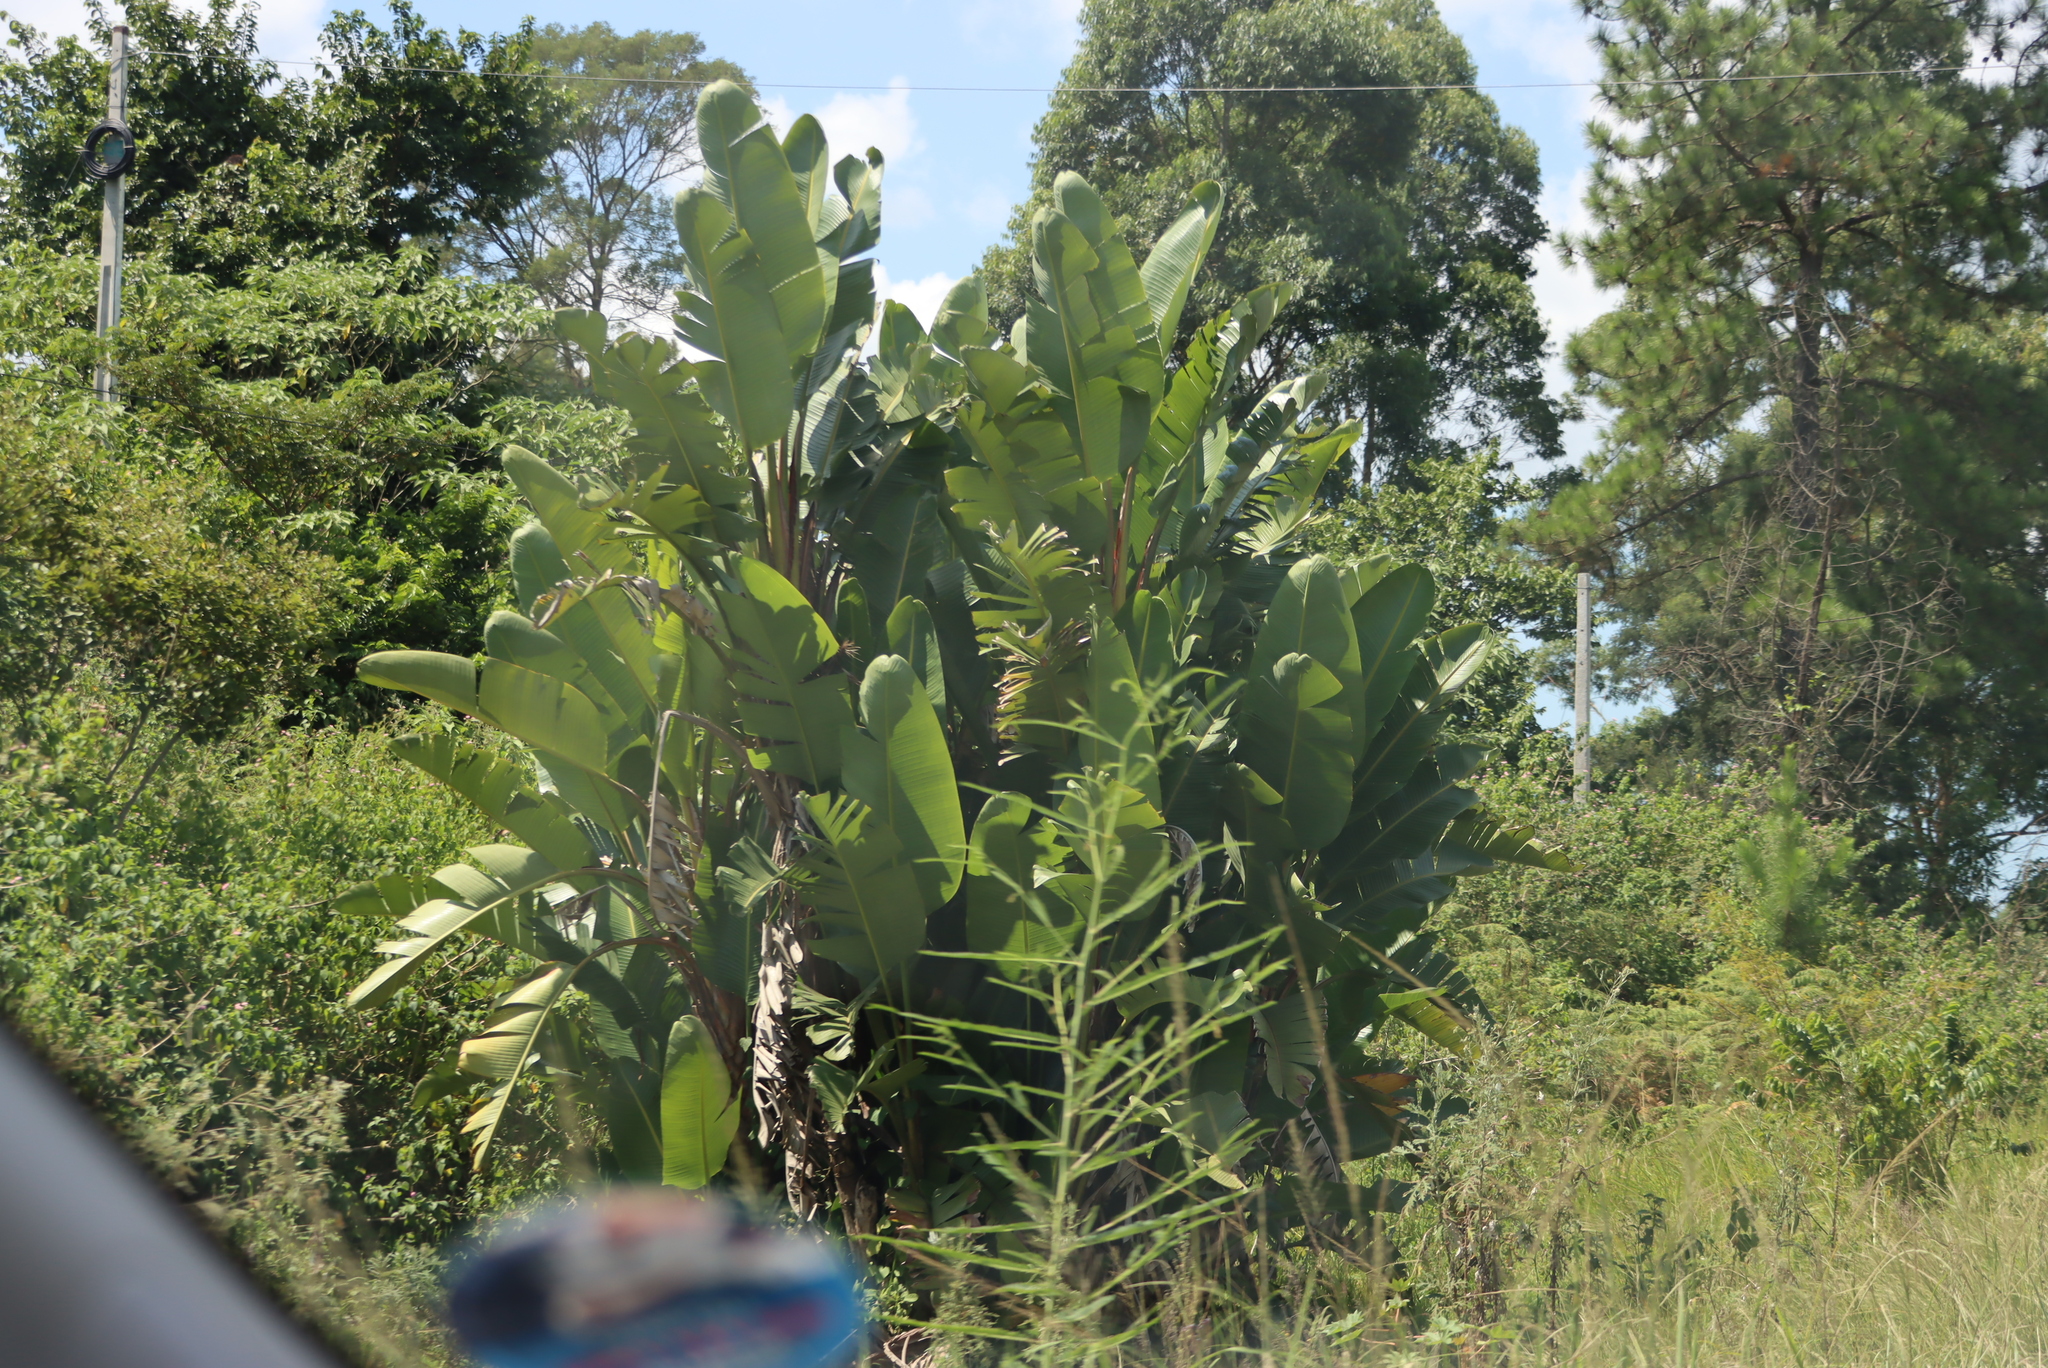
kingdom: Plantae
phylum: Tracheophyta
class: Liliopsida
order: Zingiberales
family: Strelitziaceae
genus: Strelitzia
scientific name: Strelitzia nicolai
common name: Bird-of-paradise tree
